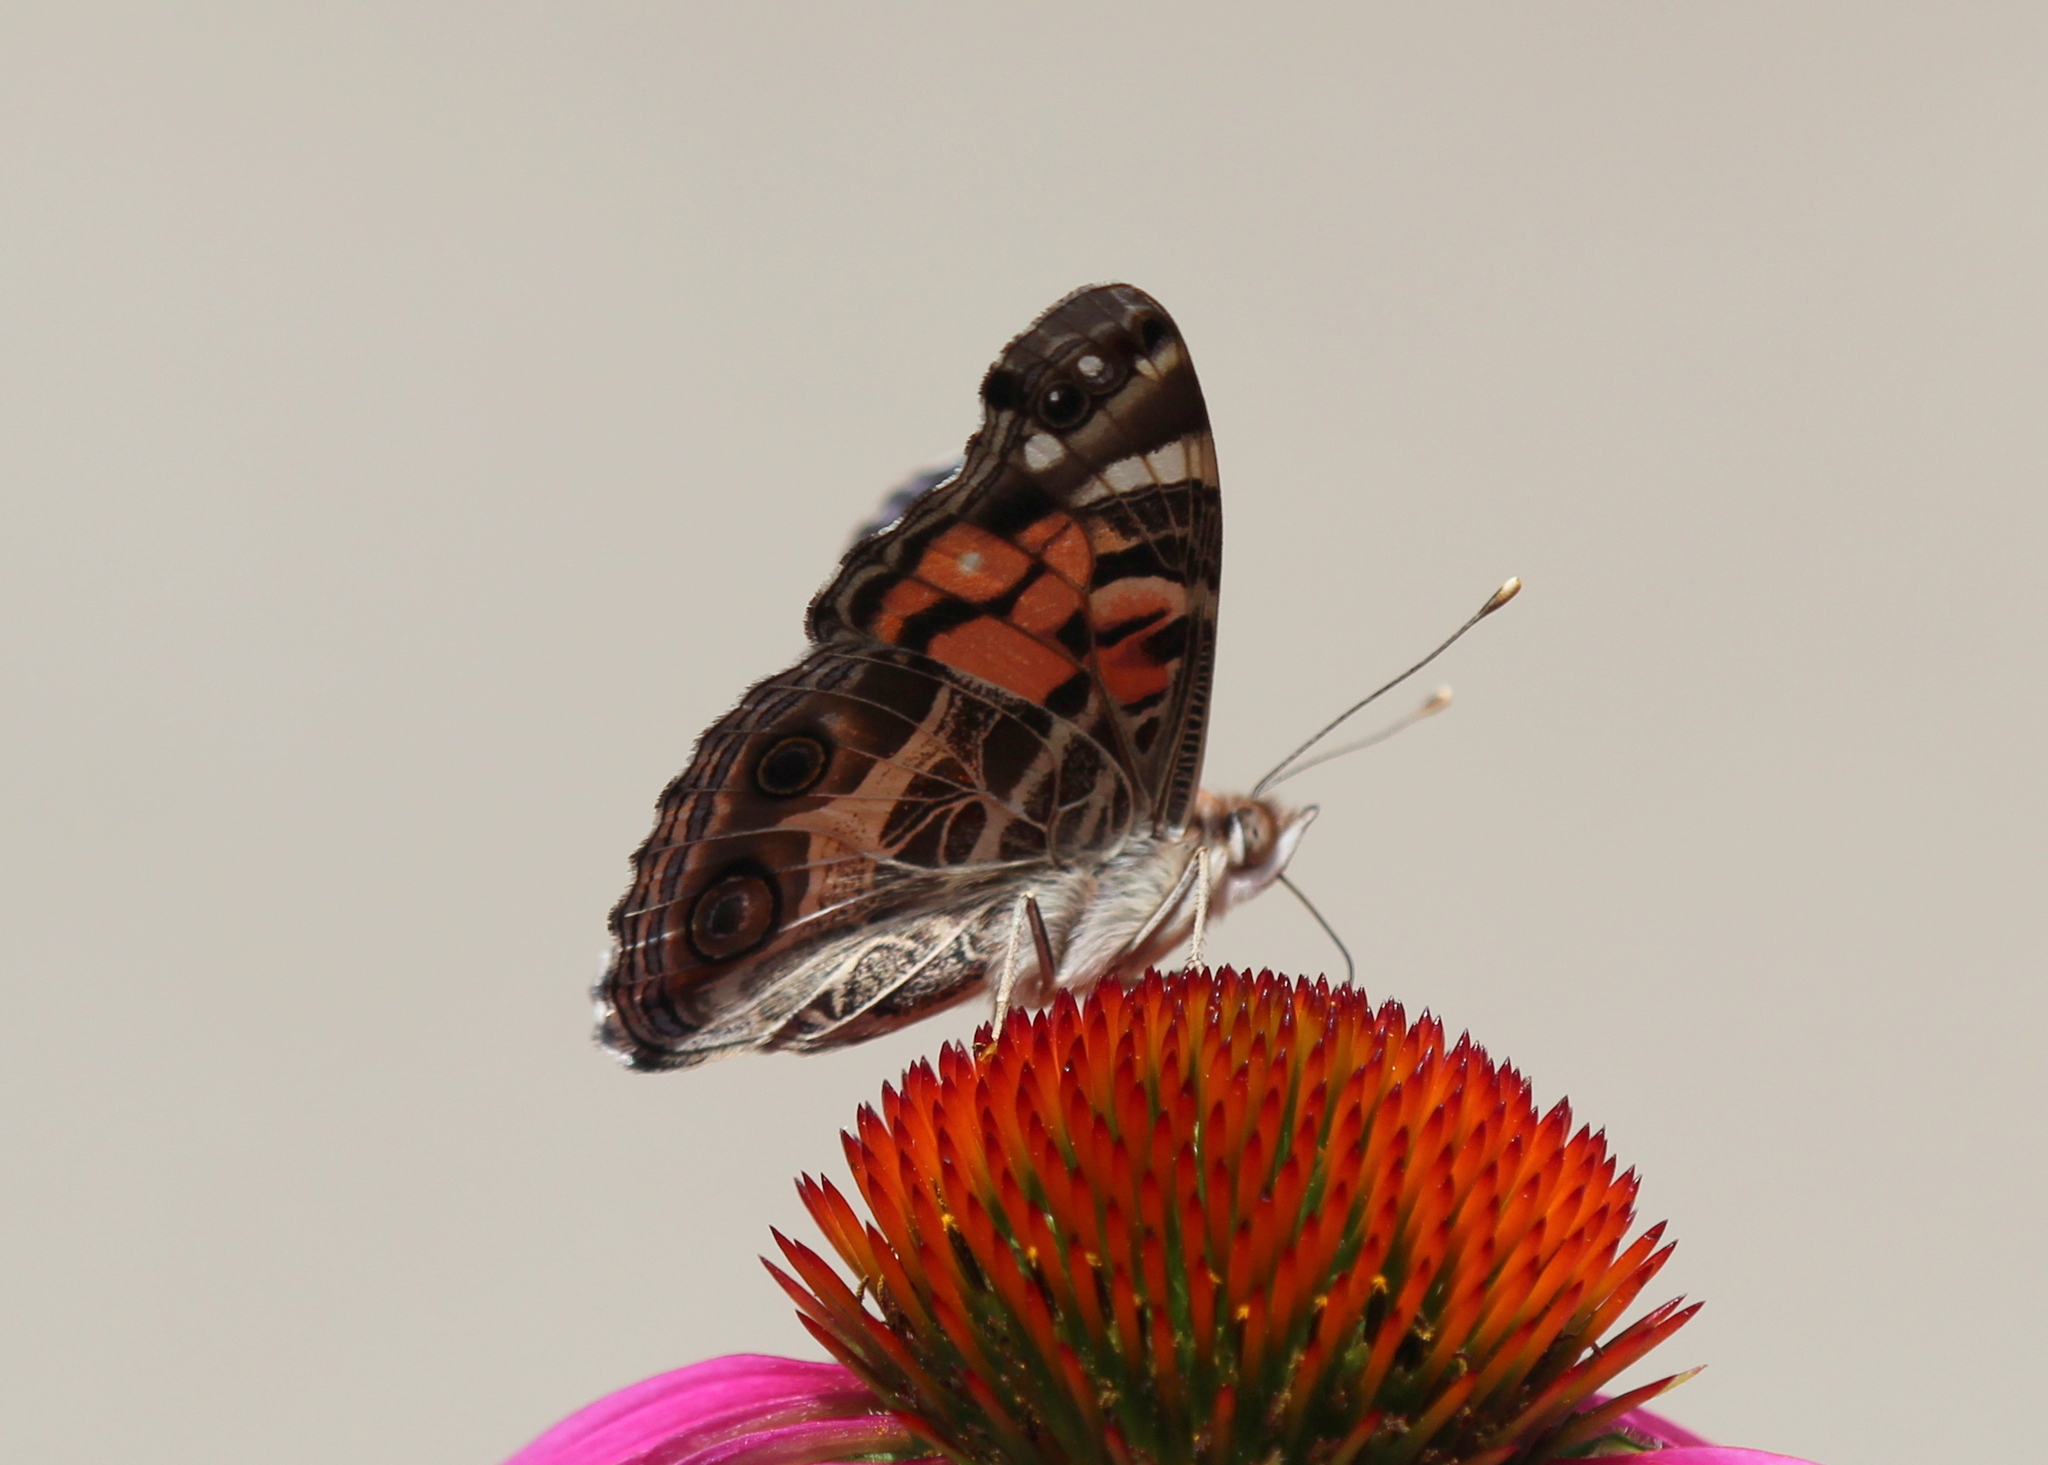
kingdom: Animalia
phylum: Arthropoda
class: Insecta
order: Lepidoptera
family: Nymphalidae
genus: Vanessa
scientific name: Vanessa virginiensis
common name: American lady
